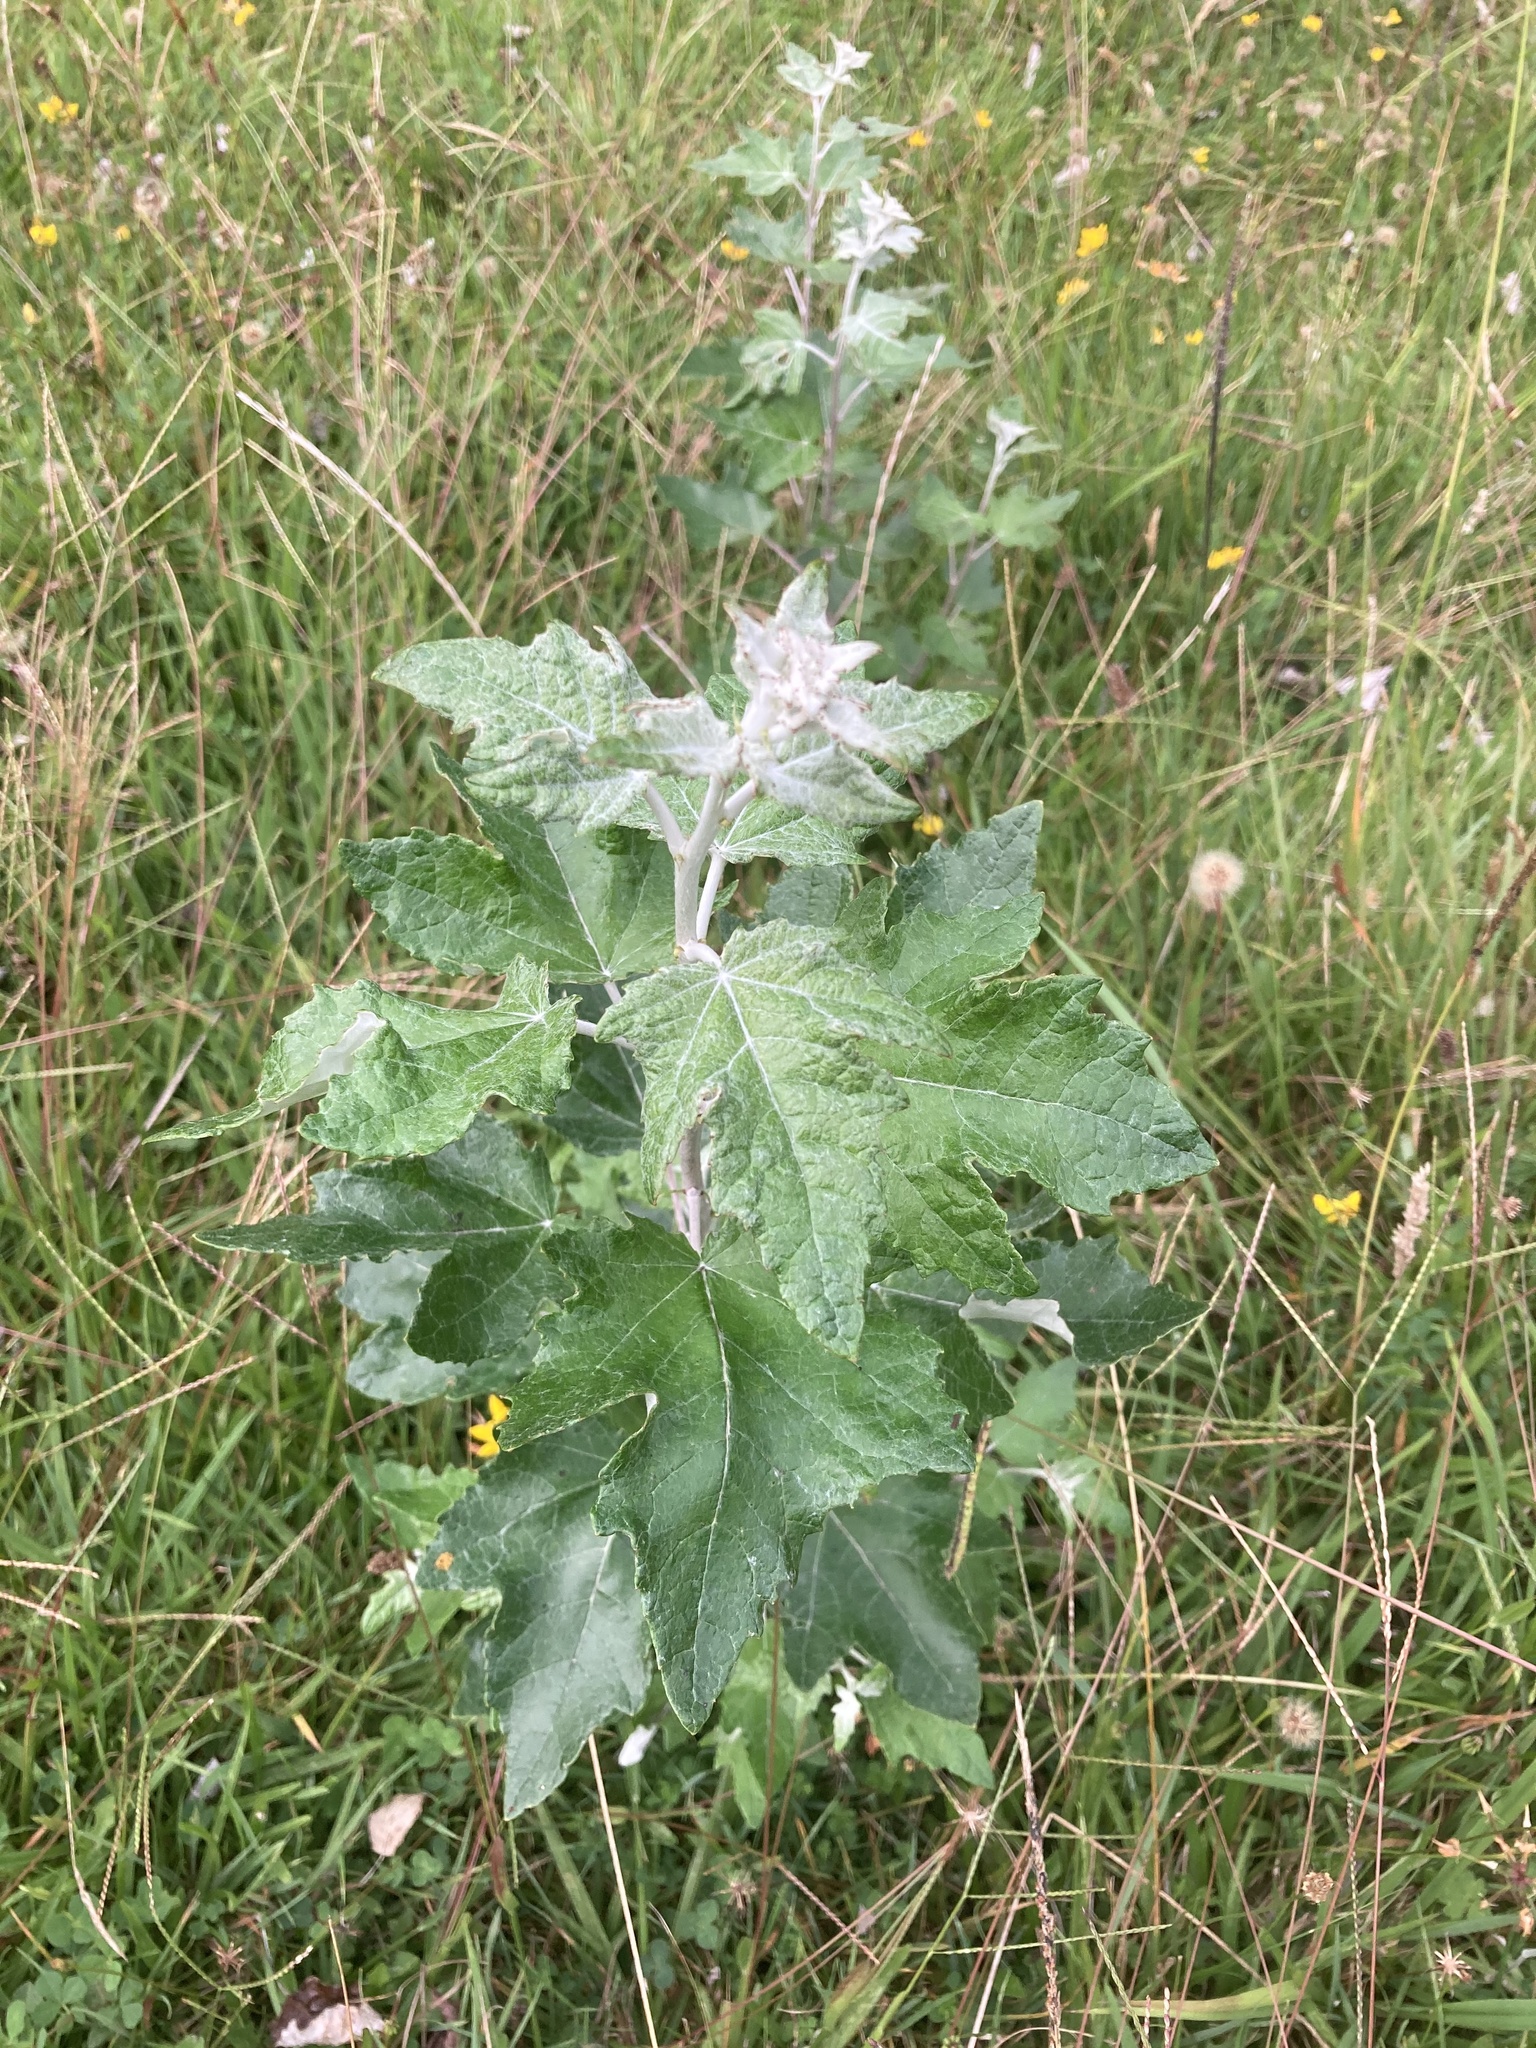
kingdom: Plantae
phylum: Tracheophyta
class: Magnoliopsida
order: Malpighiales
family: Salicaceae
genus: Populus
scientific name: Populus alba
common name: White poplar
